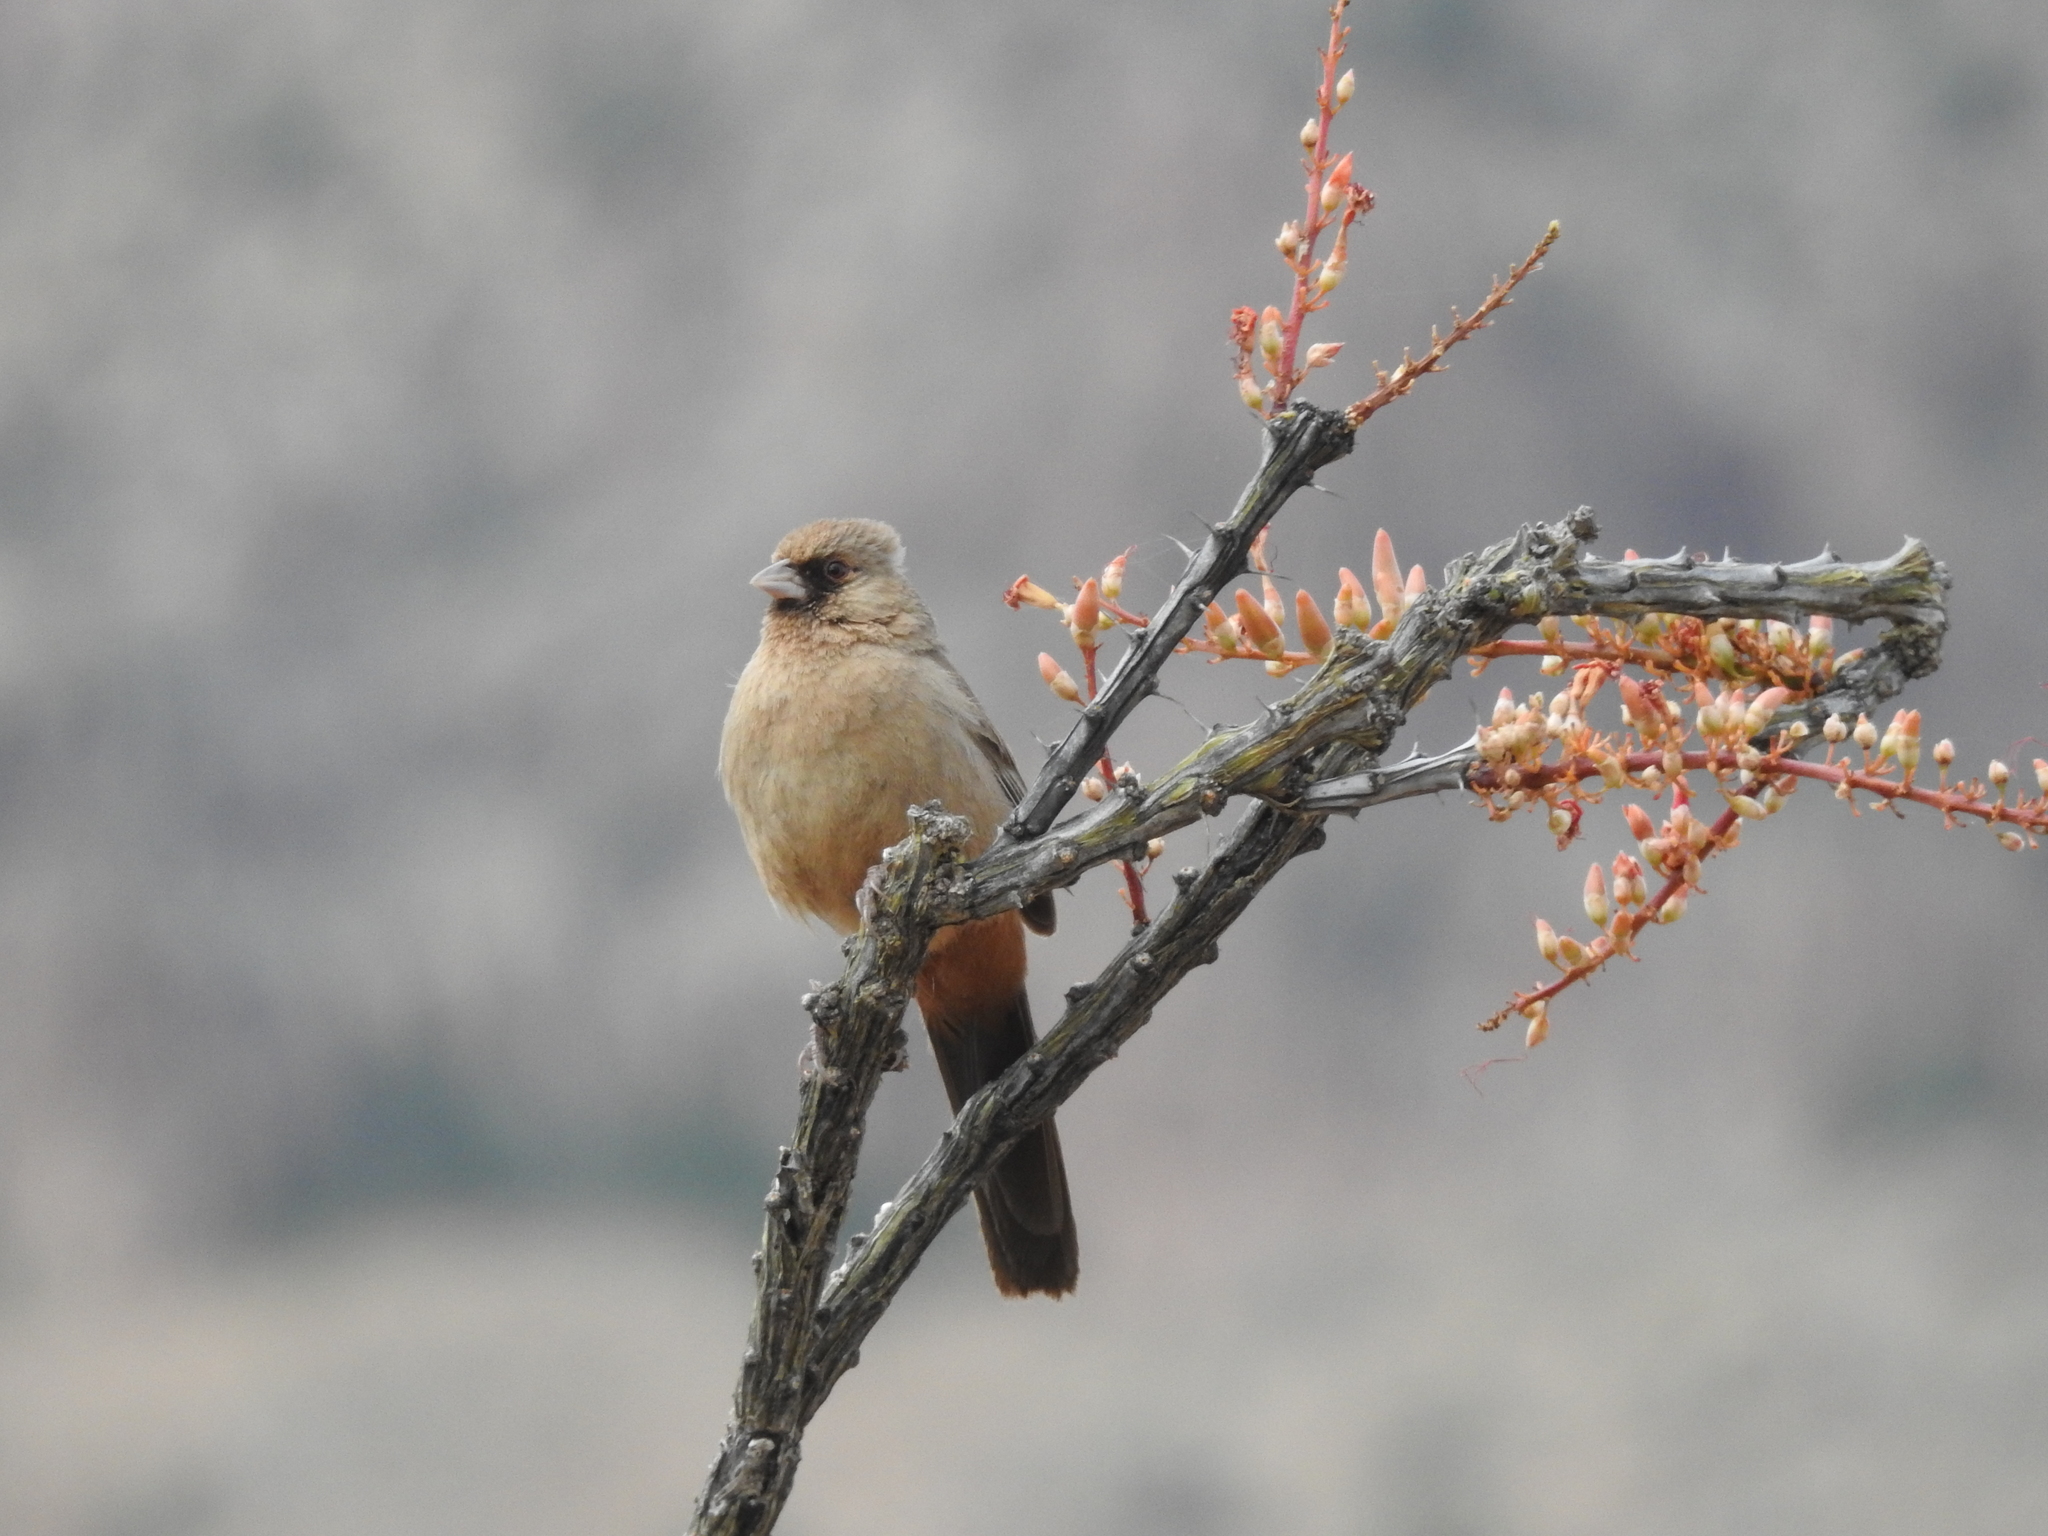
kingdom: Animalia
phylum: Chordata
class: Aves
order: Passeriformes
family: Passerellidae
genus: Melozone
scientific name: Melozone aberti
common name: Abert's towhee
